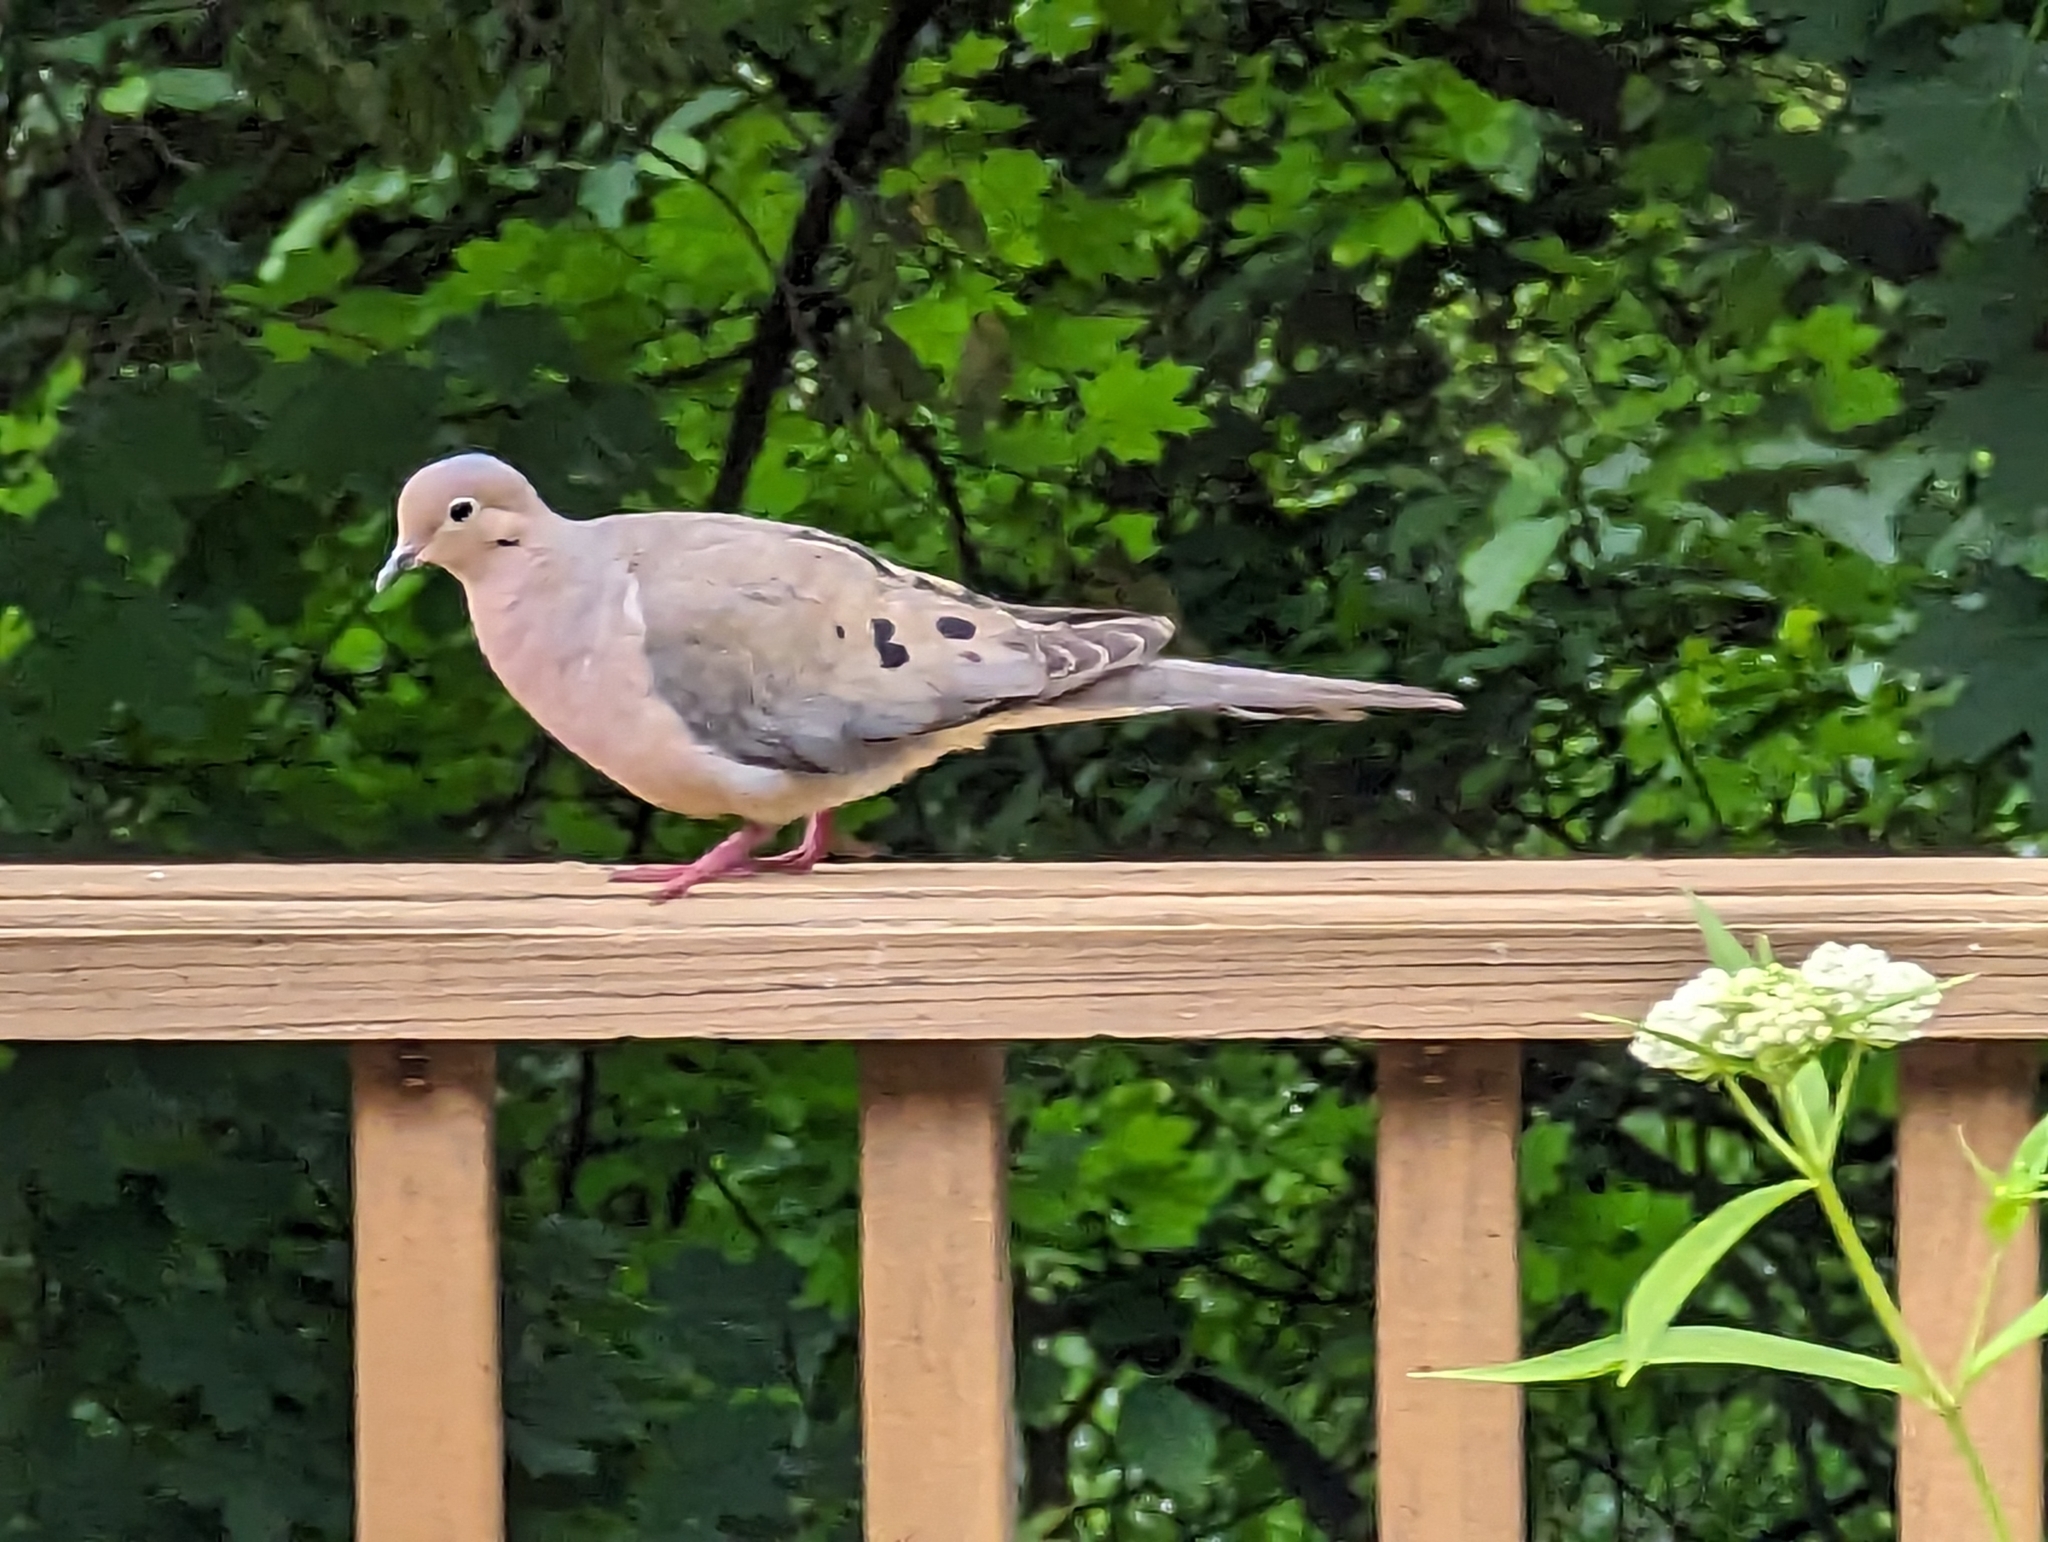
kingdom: Animalia
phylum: Chordata
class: Aves
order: Columbiformes
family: Columbidae
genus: Zenaida
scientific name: Zenaida macroura
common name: Mourning dove
